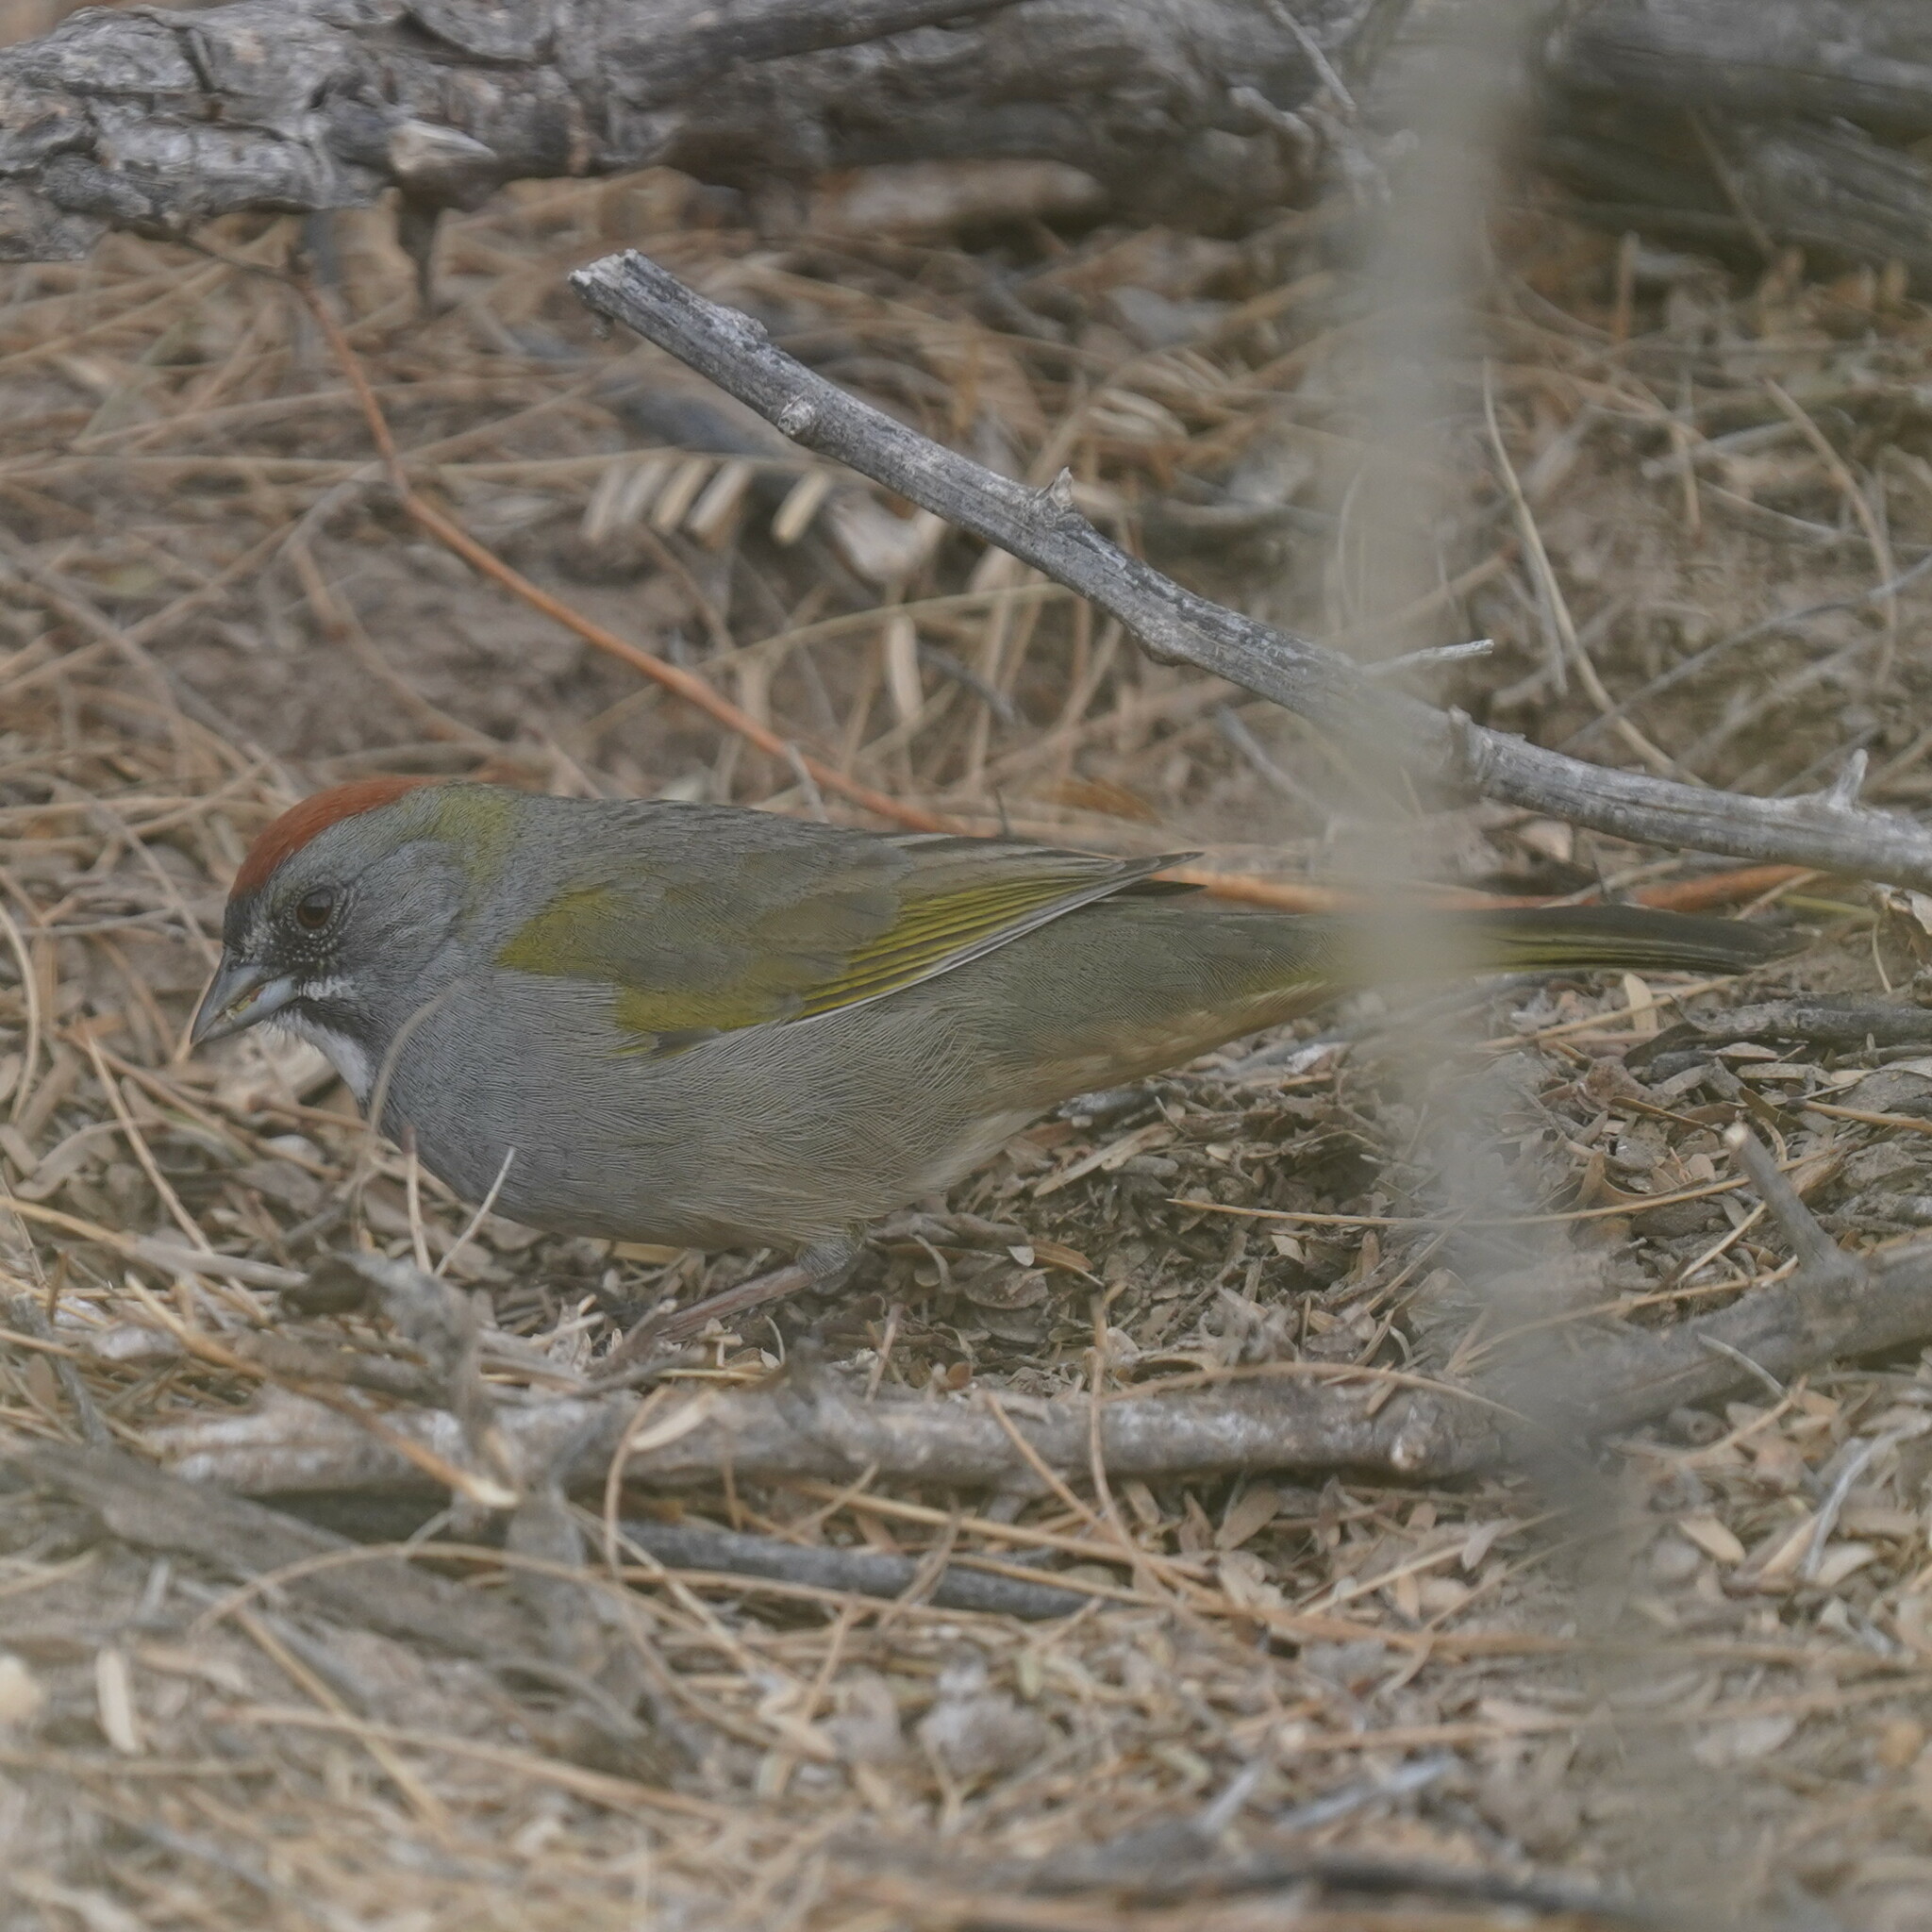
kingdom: Animalia
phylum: Chordata
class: Aves
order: Passeriformes
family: Passerellidae
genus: Pipilo
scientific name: Pipilo chlorurus
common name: Green-tailed towhee
